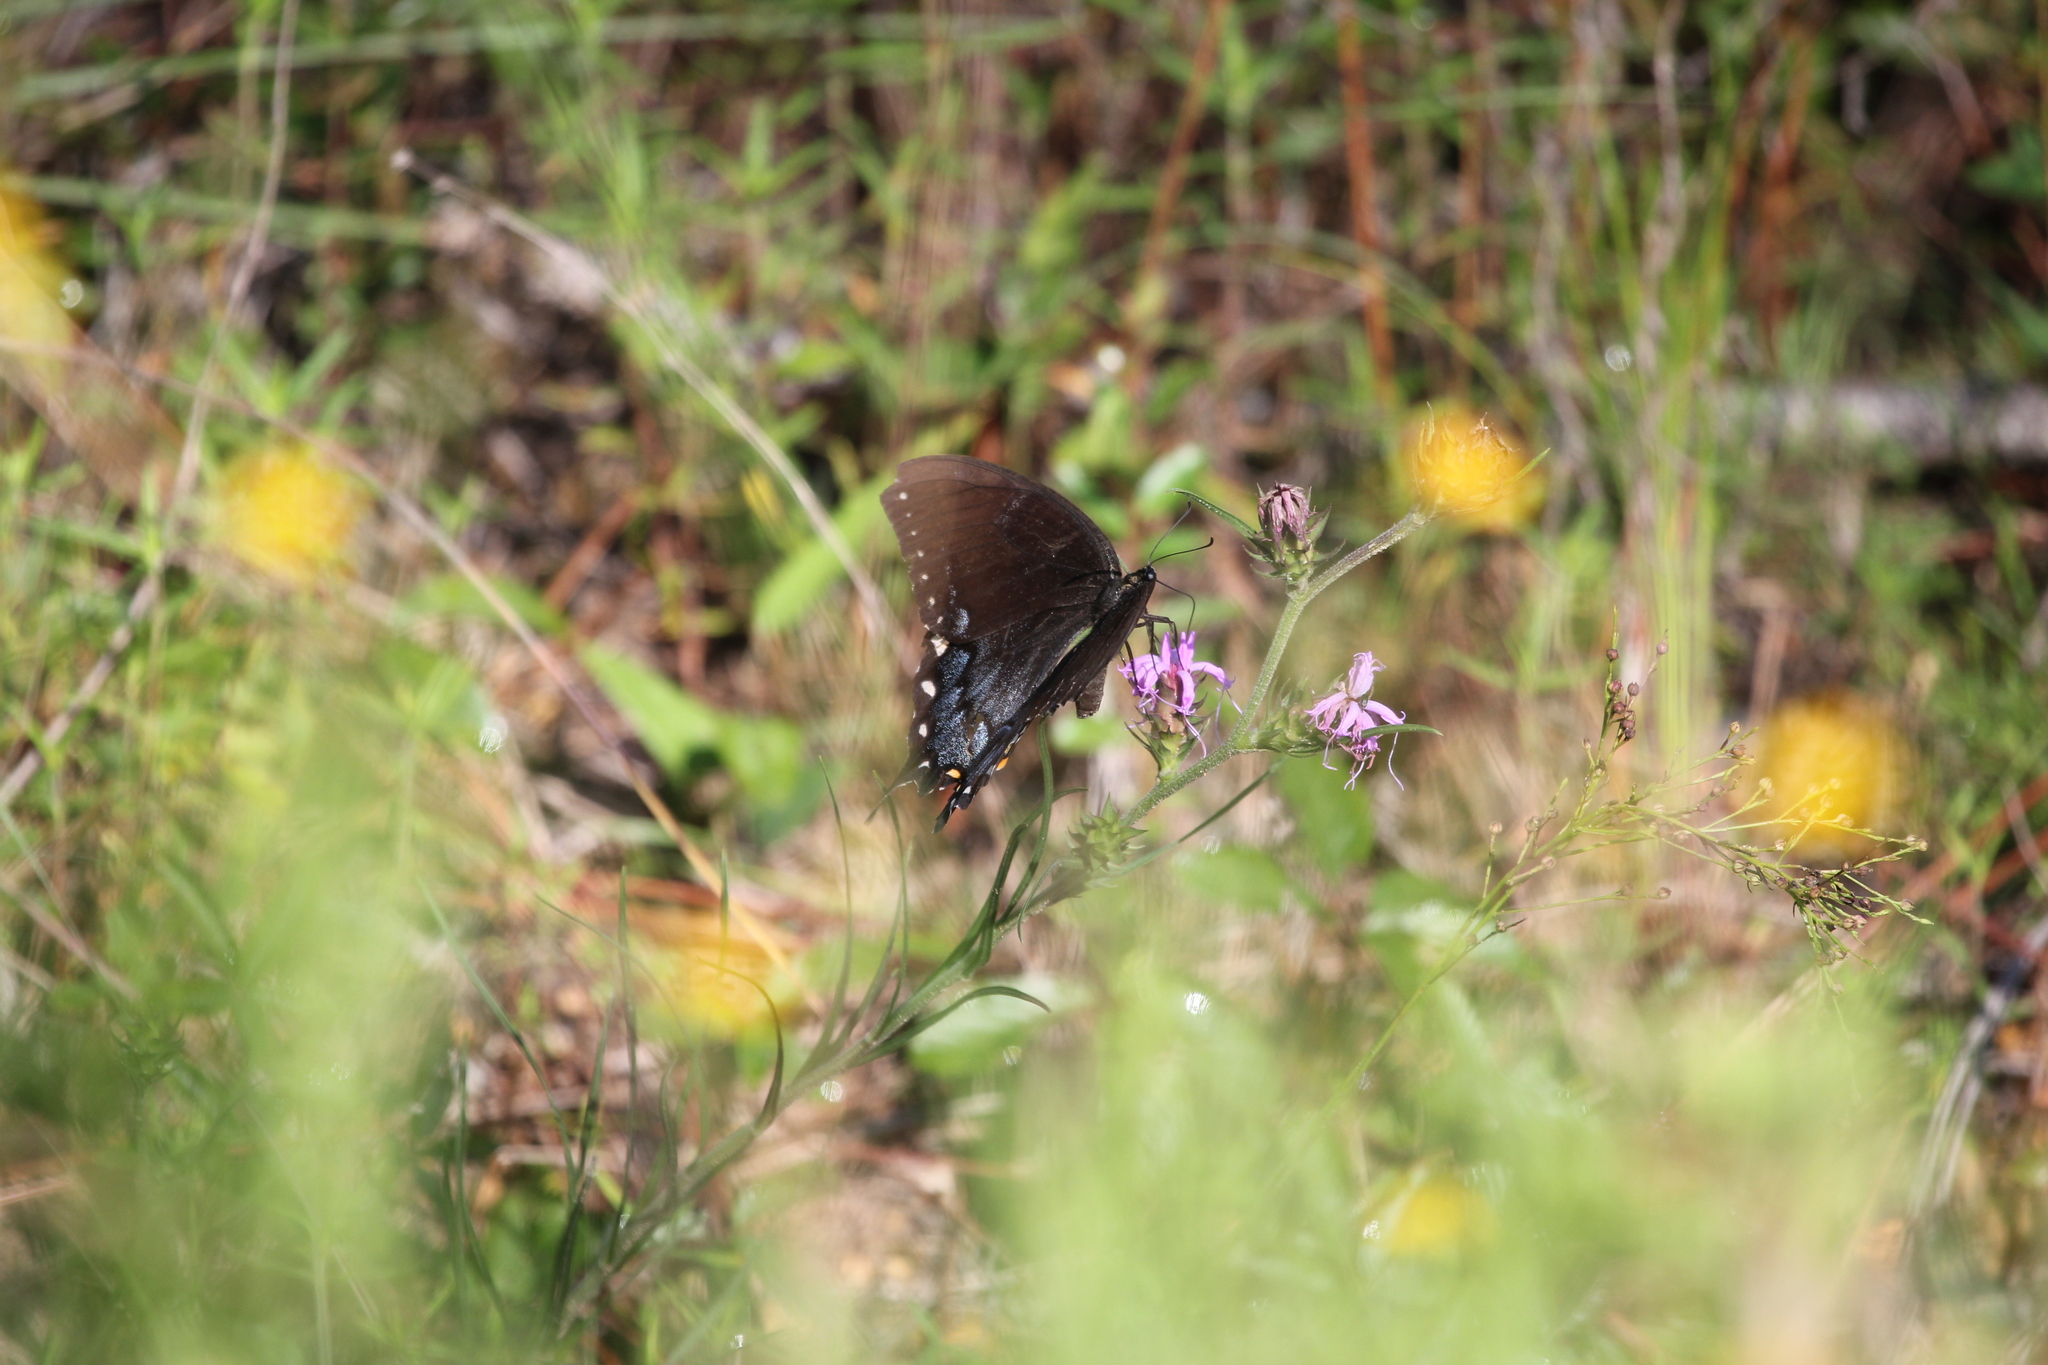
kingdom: Animalia
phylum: Arthropoda
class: Insecta
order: Lepidoptera
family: Papilionidae
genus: Papilio
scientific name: Papilio glaucus
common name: Tiger swallowtail
